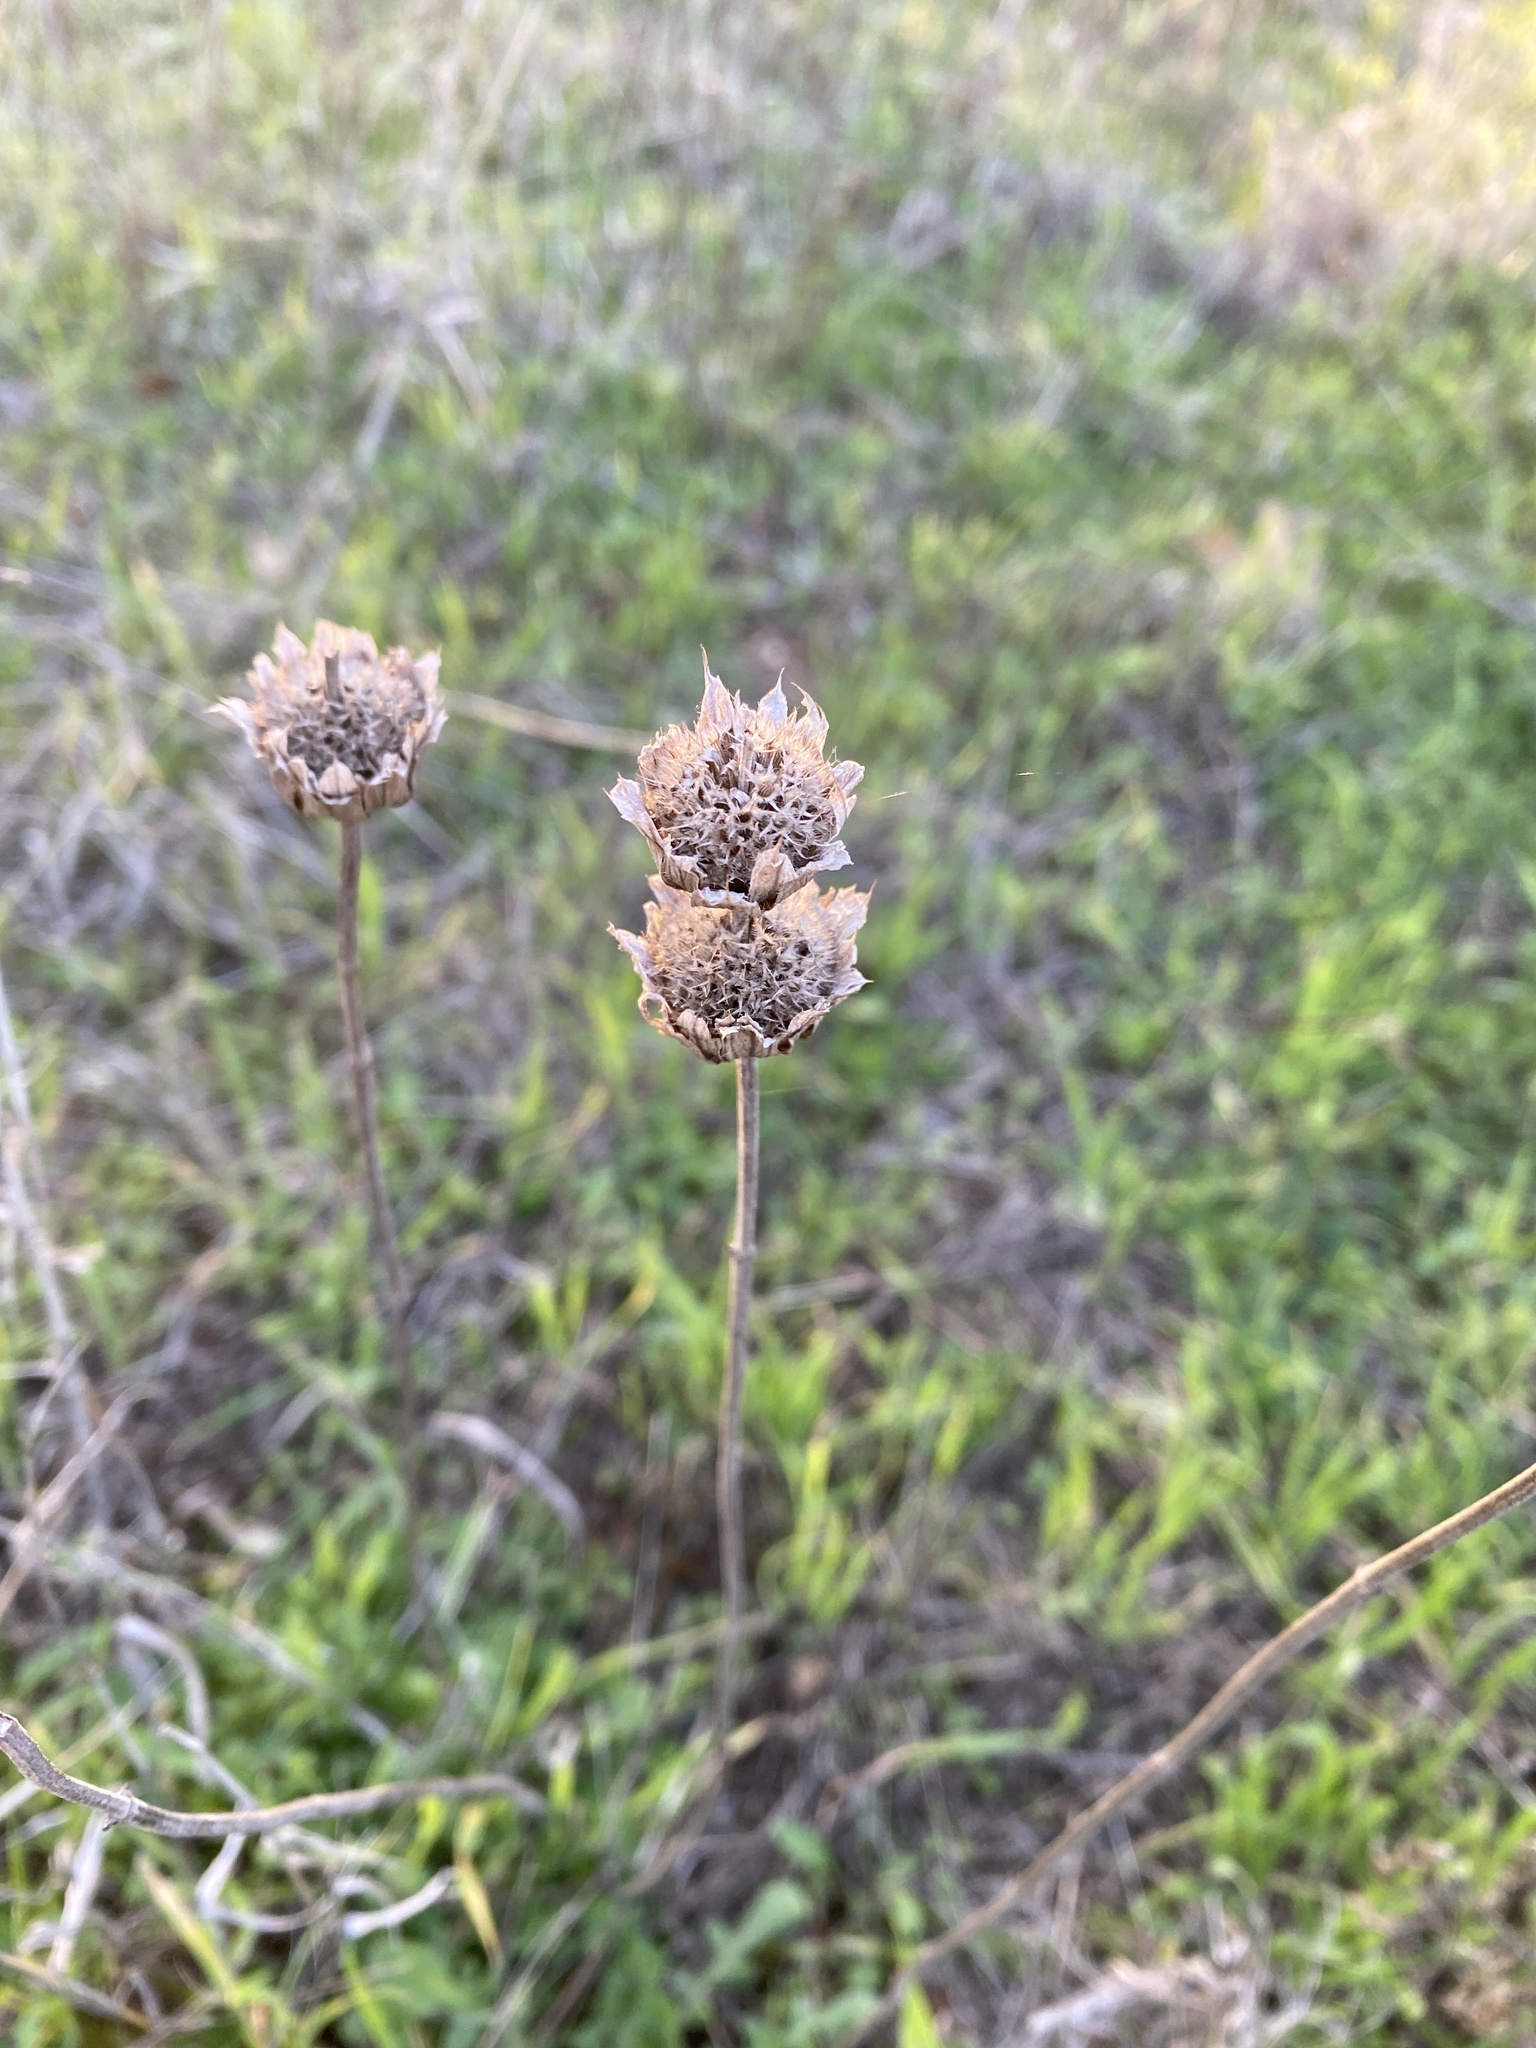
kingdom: Plantae
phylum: Tracheophyta
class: Magnoliopsida
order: Lamiales
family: Lamiaceae
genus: Monarda
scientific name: Monarda citriodora
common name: Lemon beebalm
